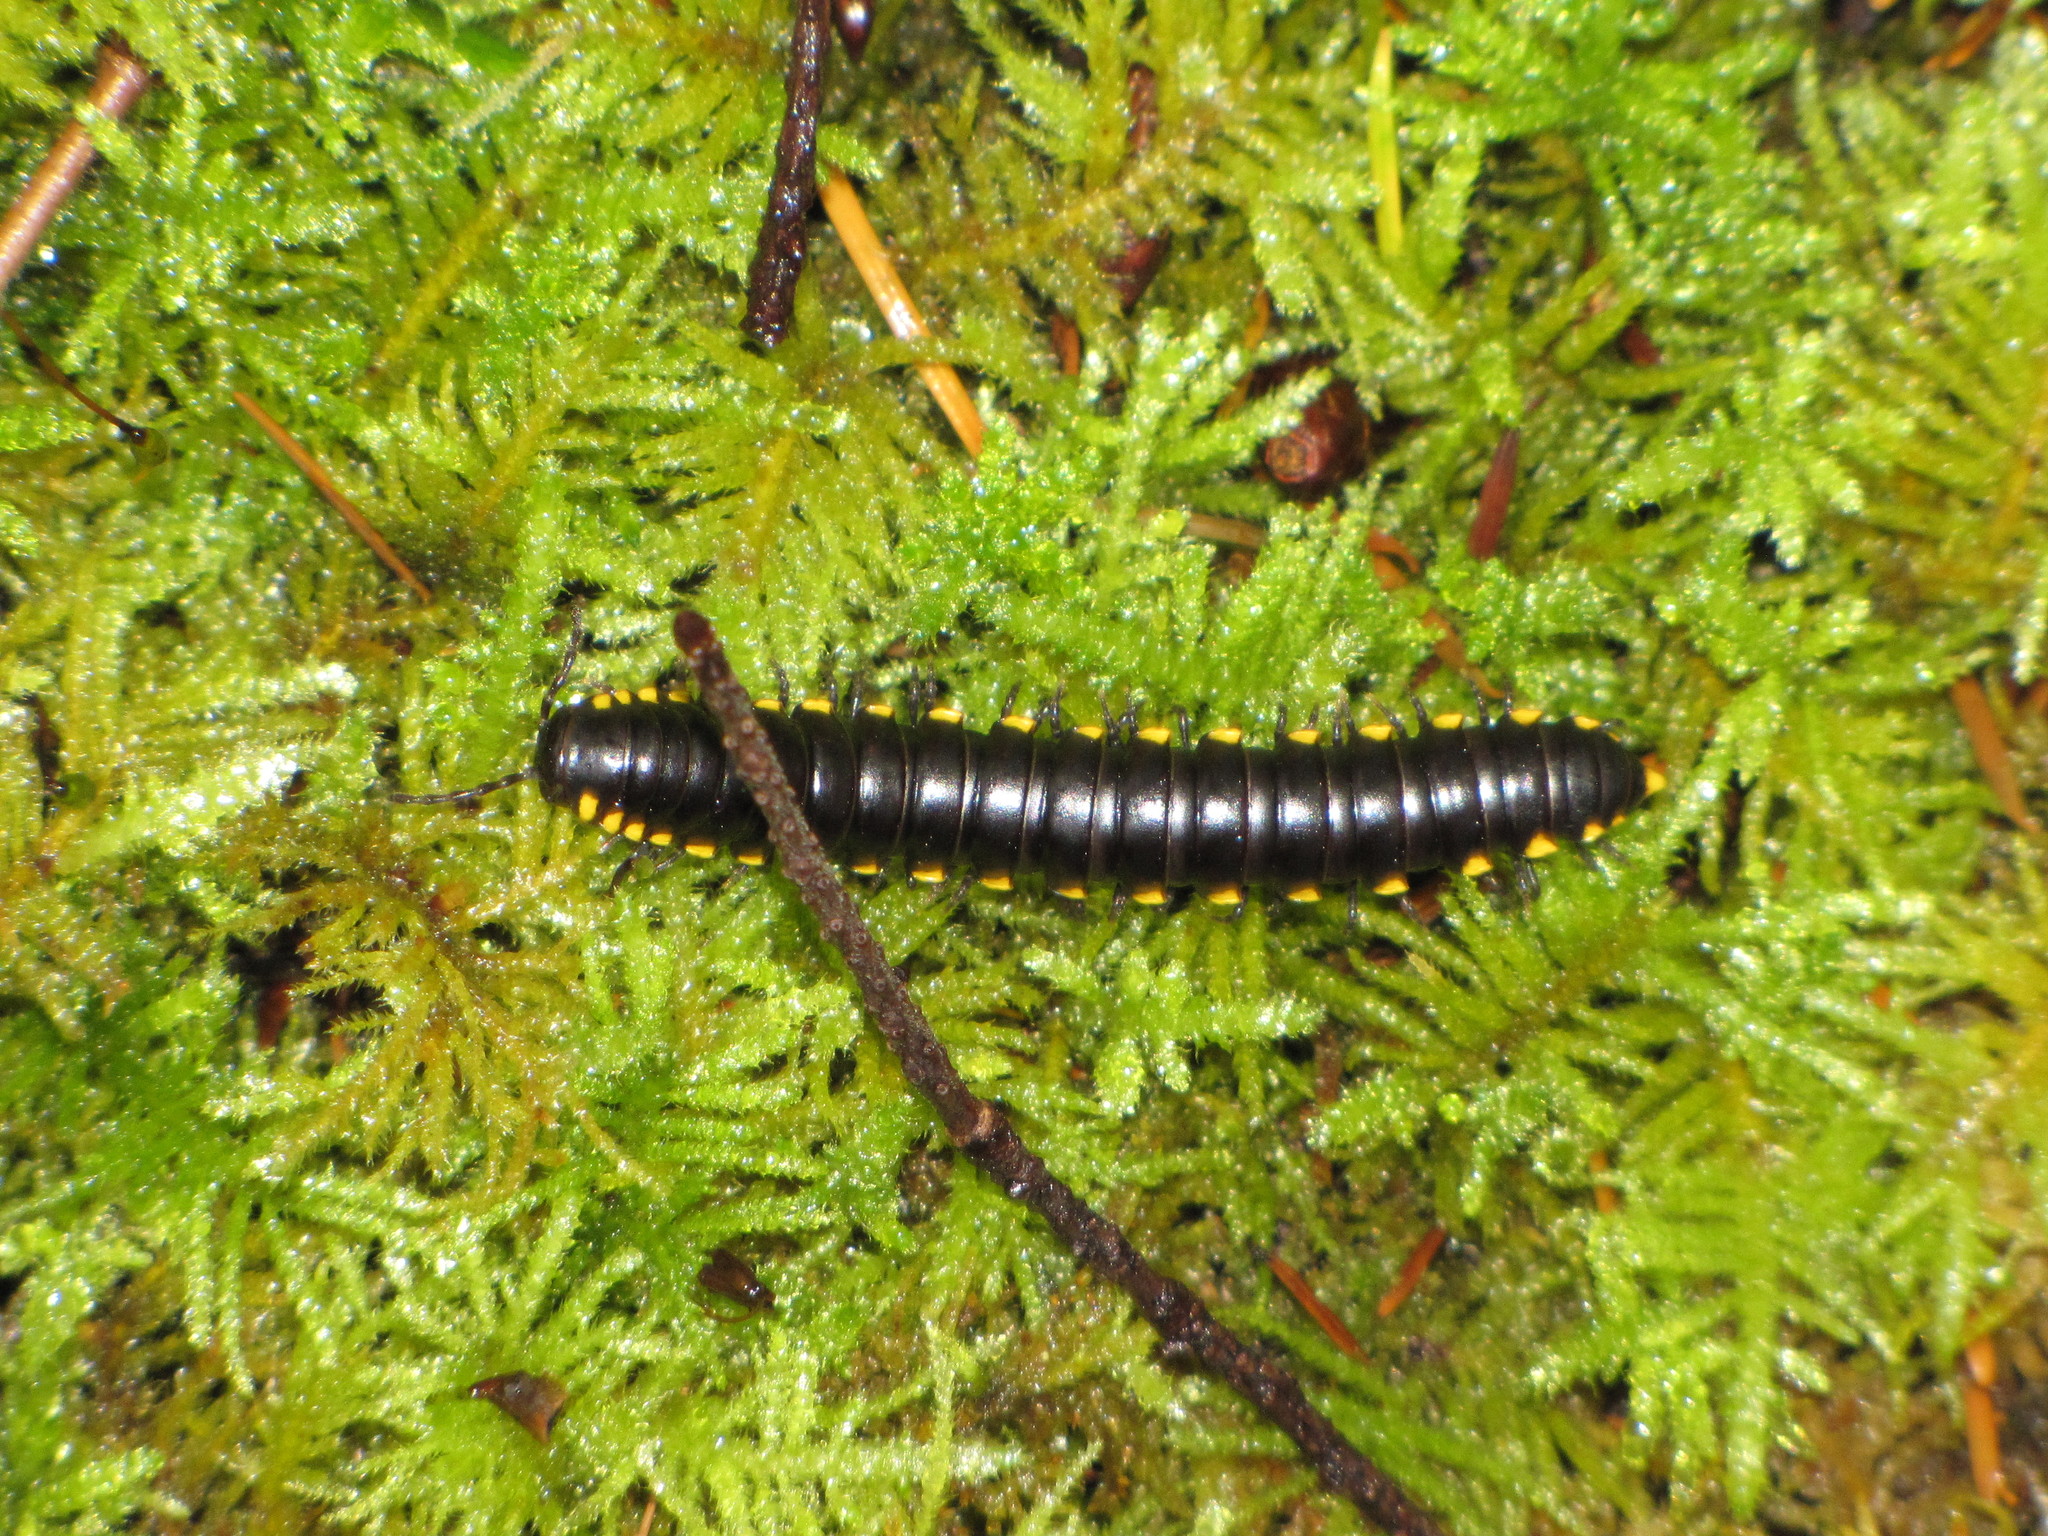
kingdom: Animalia
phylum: Arthropoda
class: Diplopoda
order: Polydesmida
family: Xystodesmidae
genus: Harpaphe
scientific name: Harpaphe haydeniana
